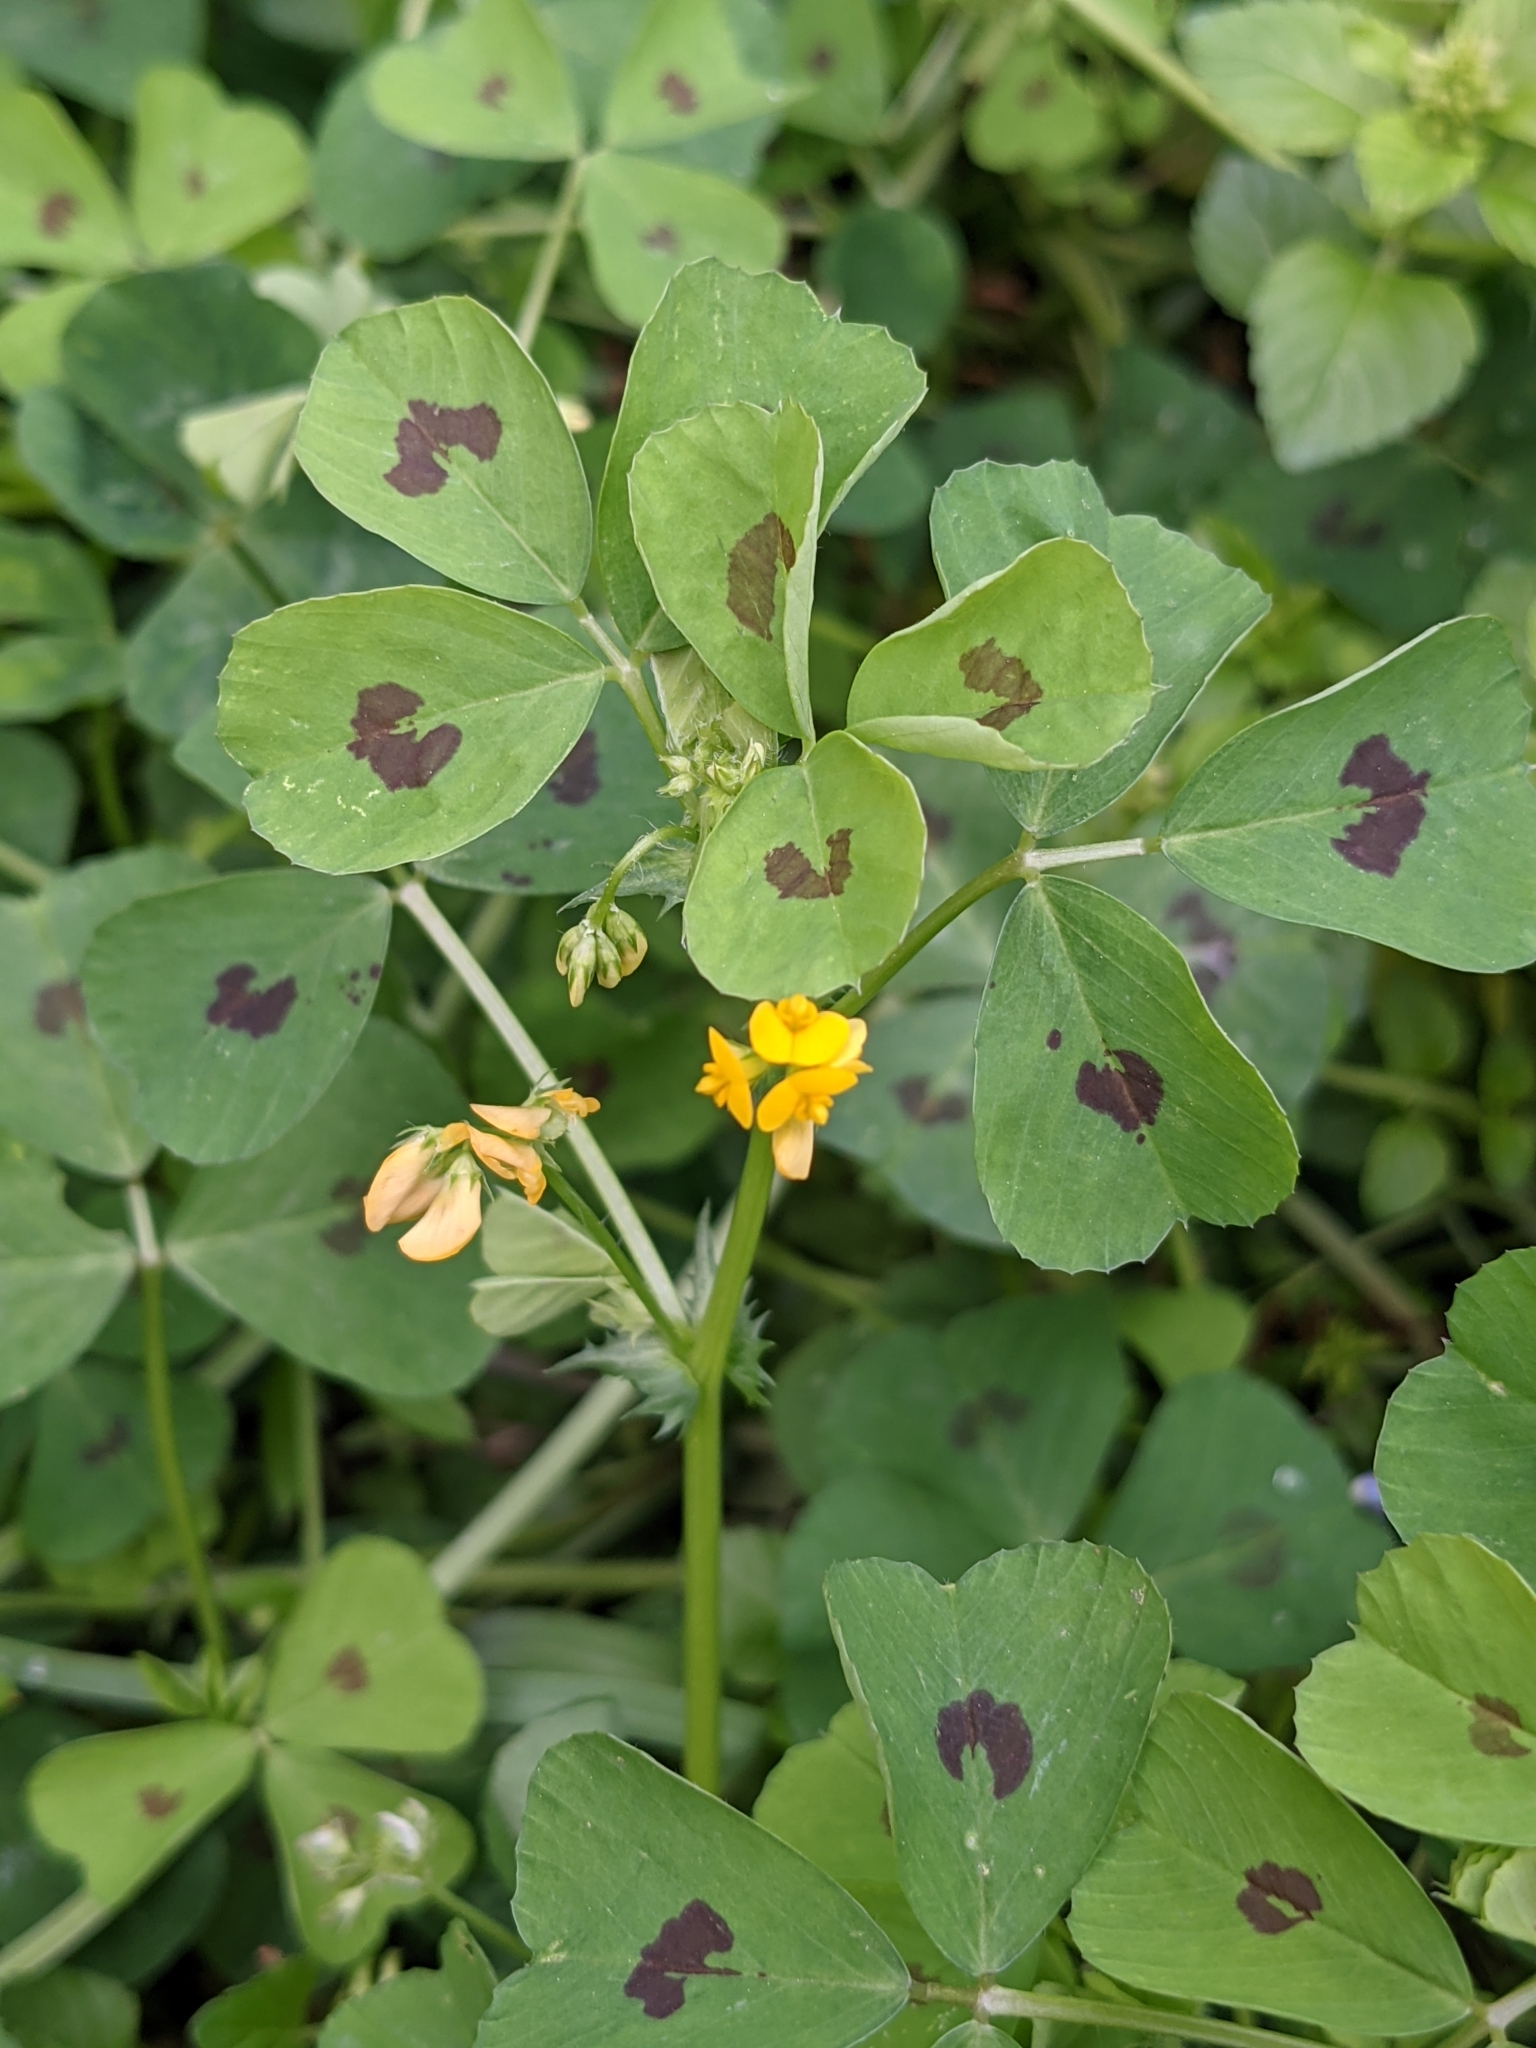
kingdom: Plantae
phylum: Tracheophyta
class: Magnoliopsida
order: Fabales
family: Fabaceae
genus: Medicago
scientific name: Medicago arabica
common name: Spotted medick
